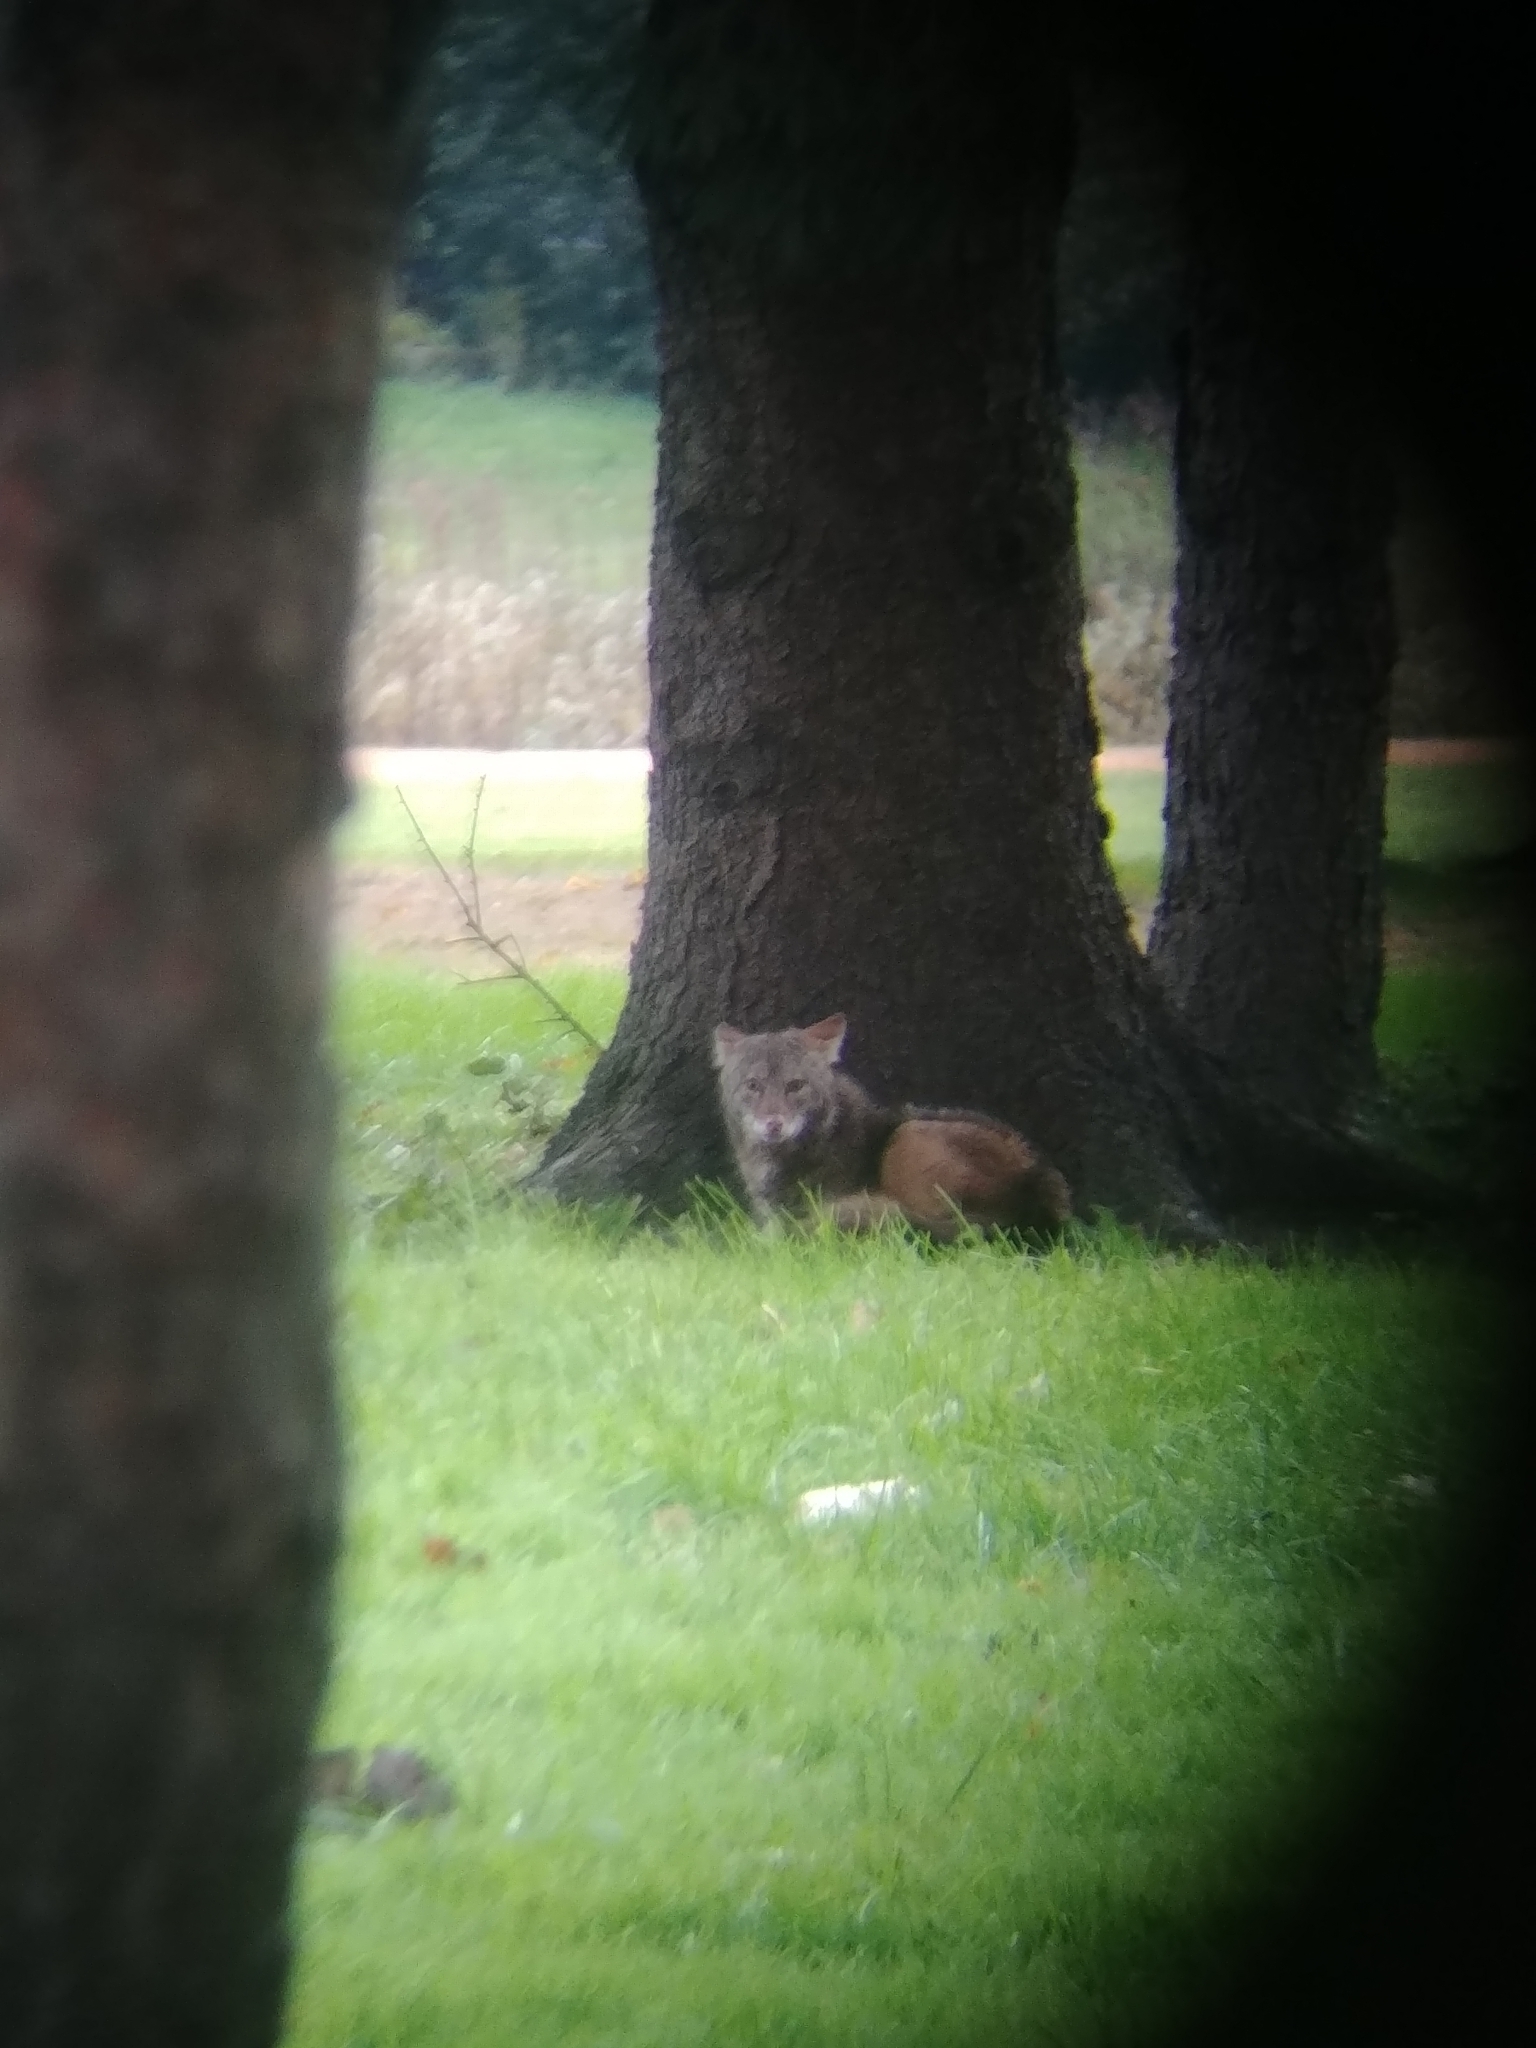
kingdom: Animalia
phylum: Chordata
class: Mammalia
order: Carnivora
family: Canidae
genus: Canis
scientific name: Canis latrans
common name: Coyote
